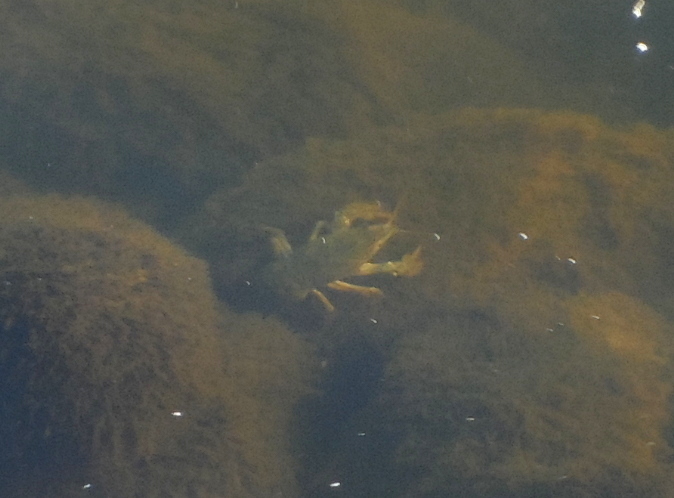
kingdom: Animalia
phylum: Arthropoda
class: Malacostraca
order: Decapoda
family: Astacidae
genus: Pontastacus
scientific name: Pontastacus leptodactylus
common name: Danube crayfish
